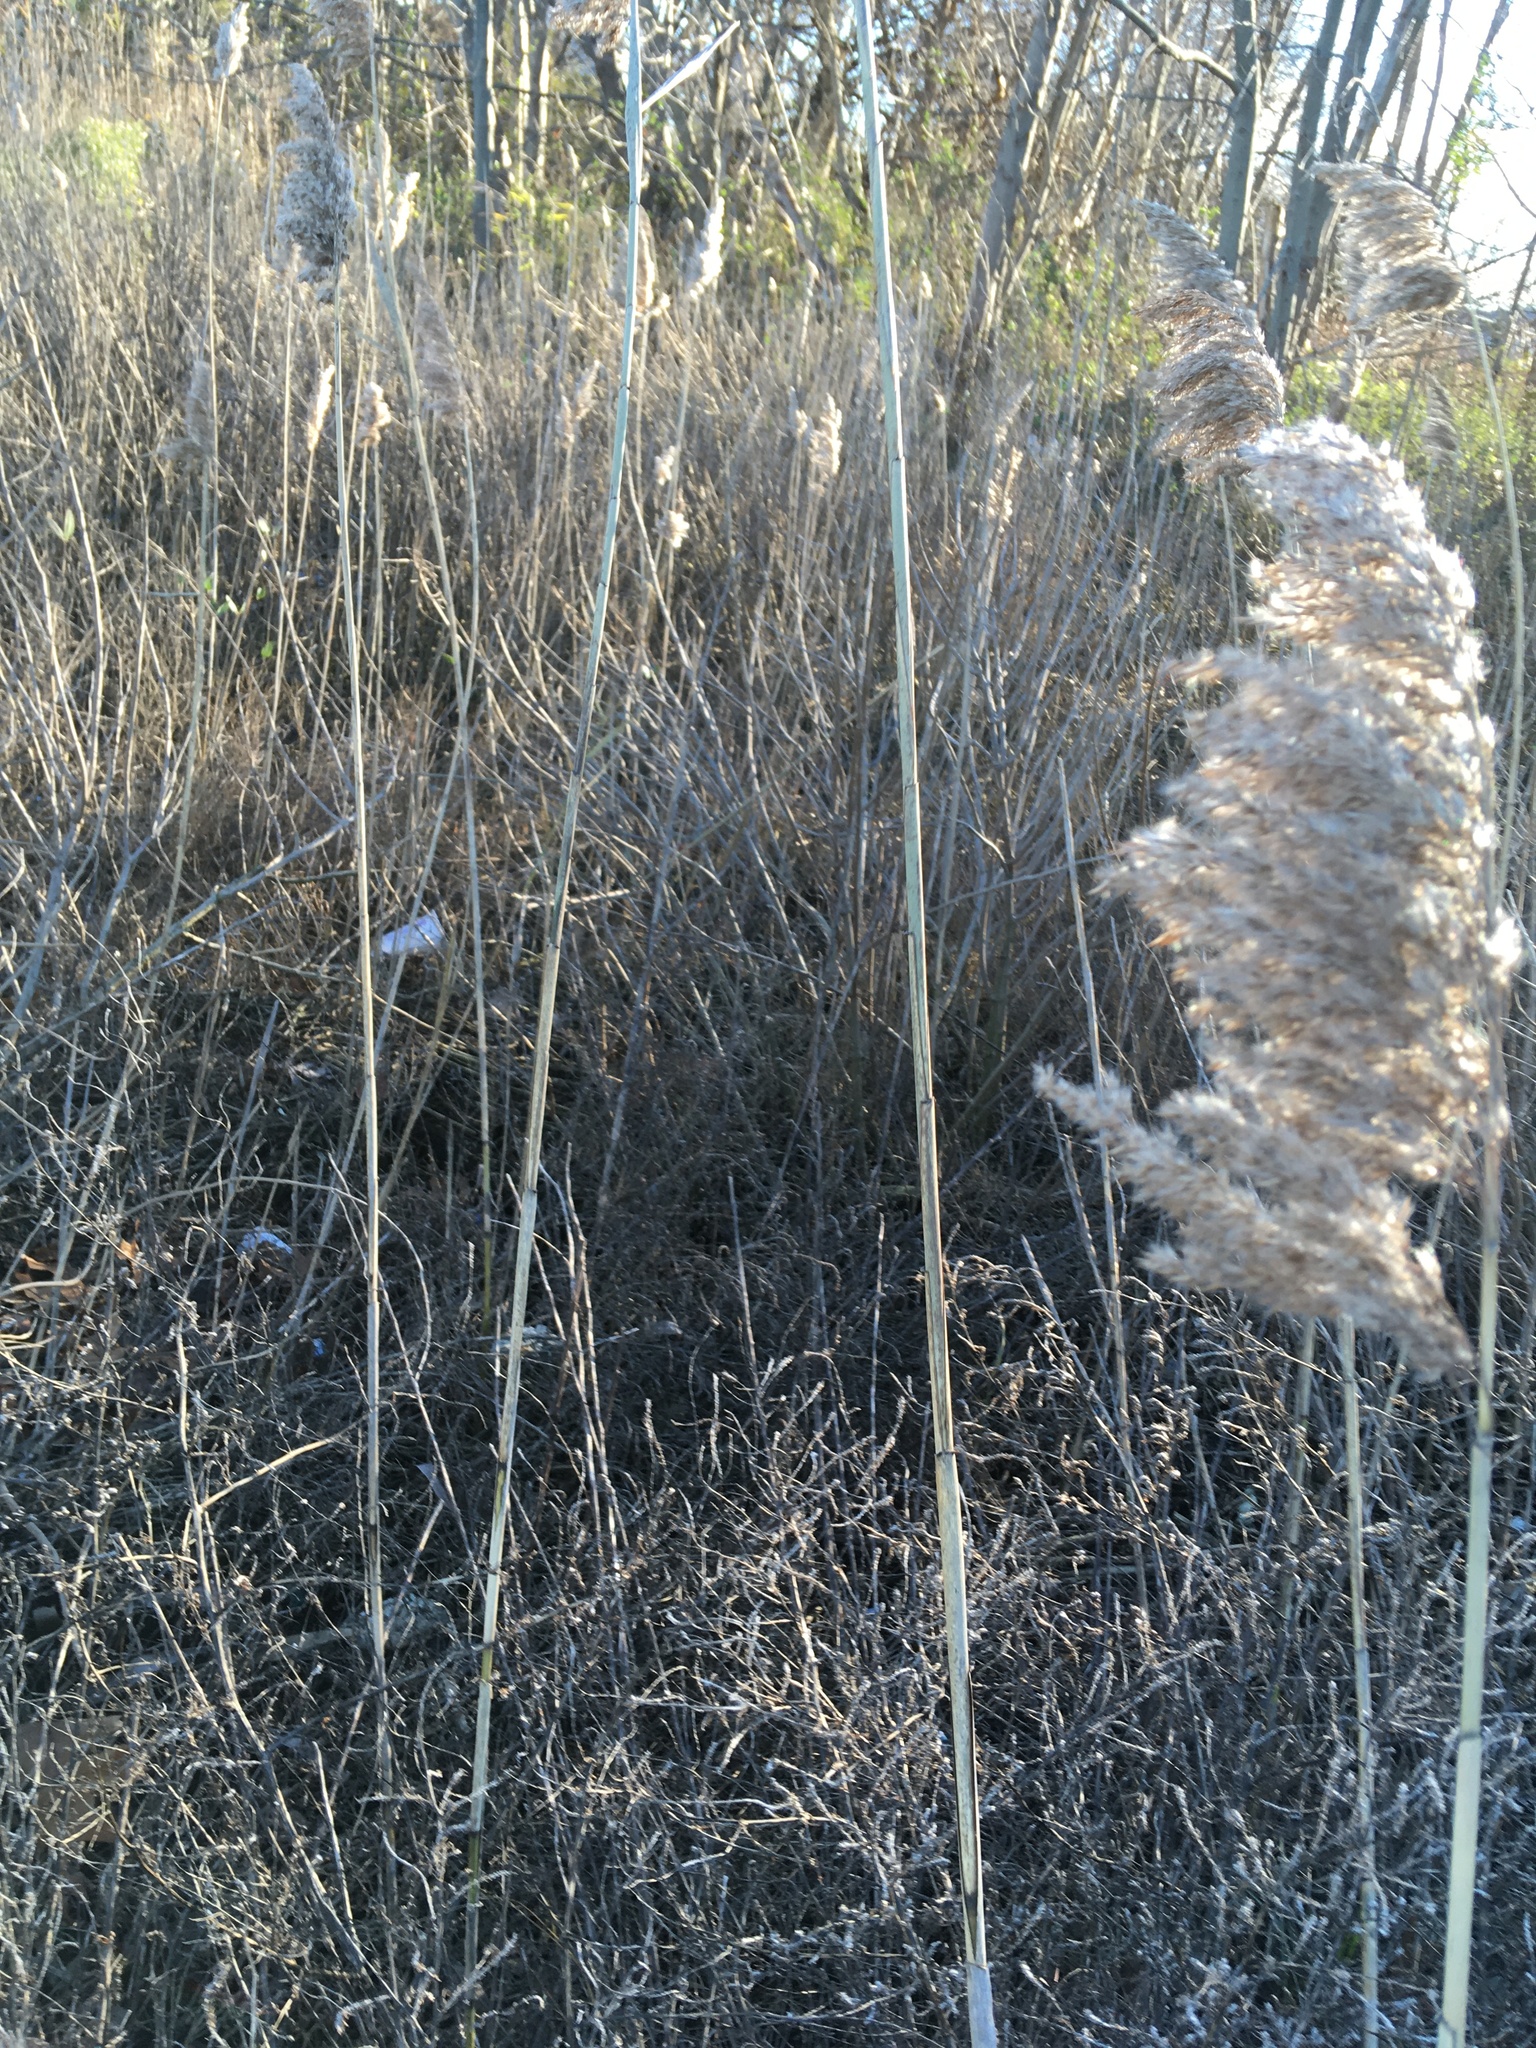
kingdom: Plantae
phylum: Tracheophyta
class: Liliopsida
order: Poales
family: Poaceae
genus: Phragmites
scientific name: Phragmites australis
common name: Common reed
